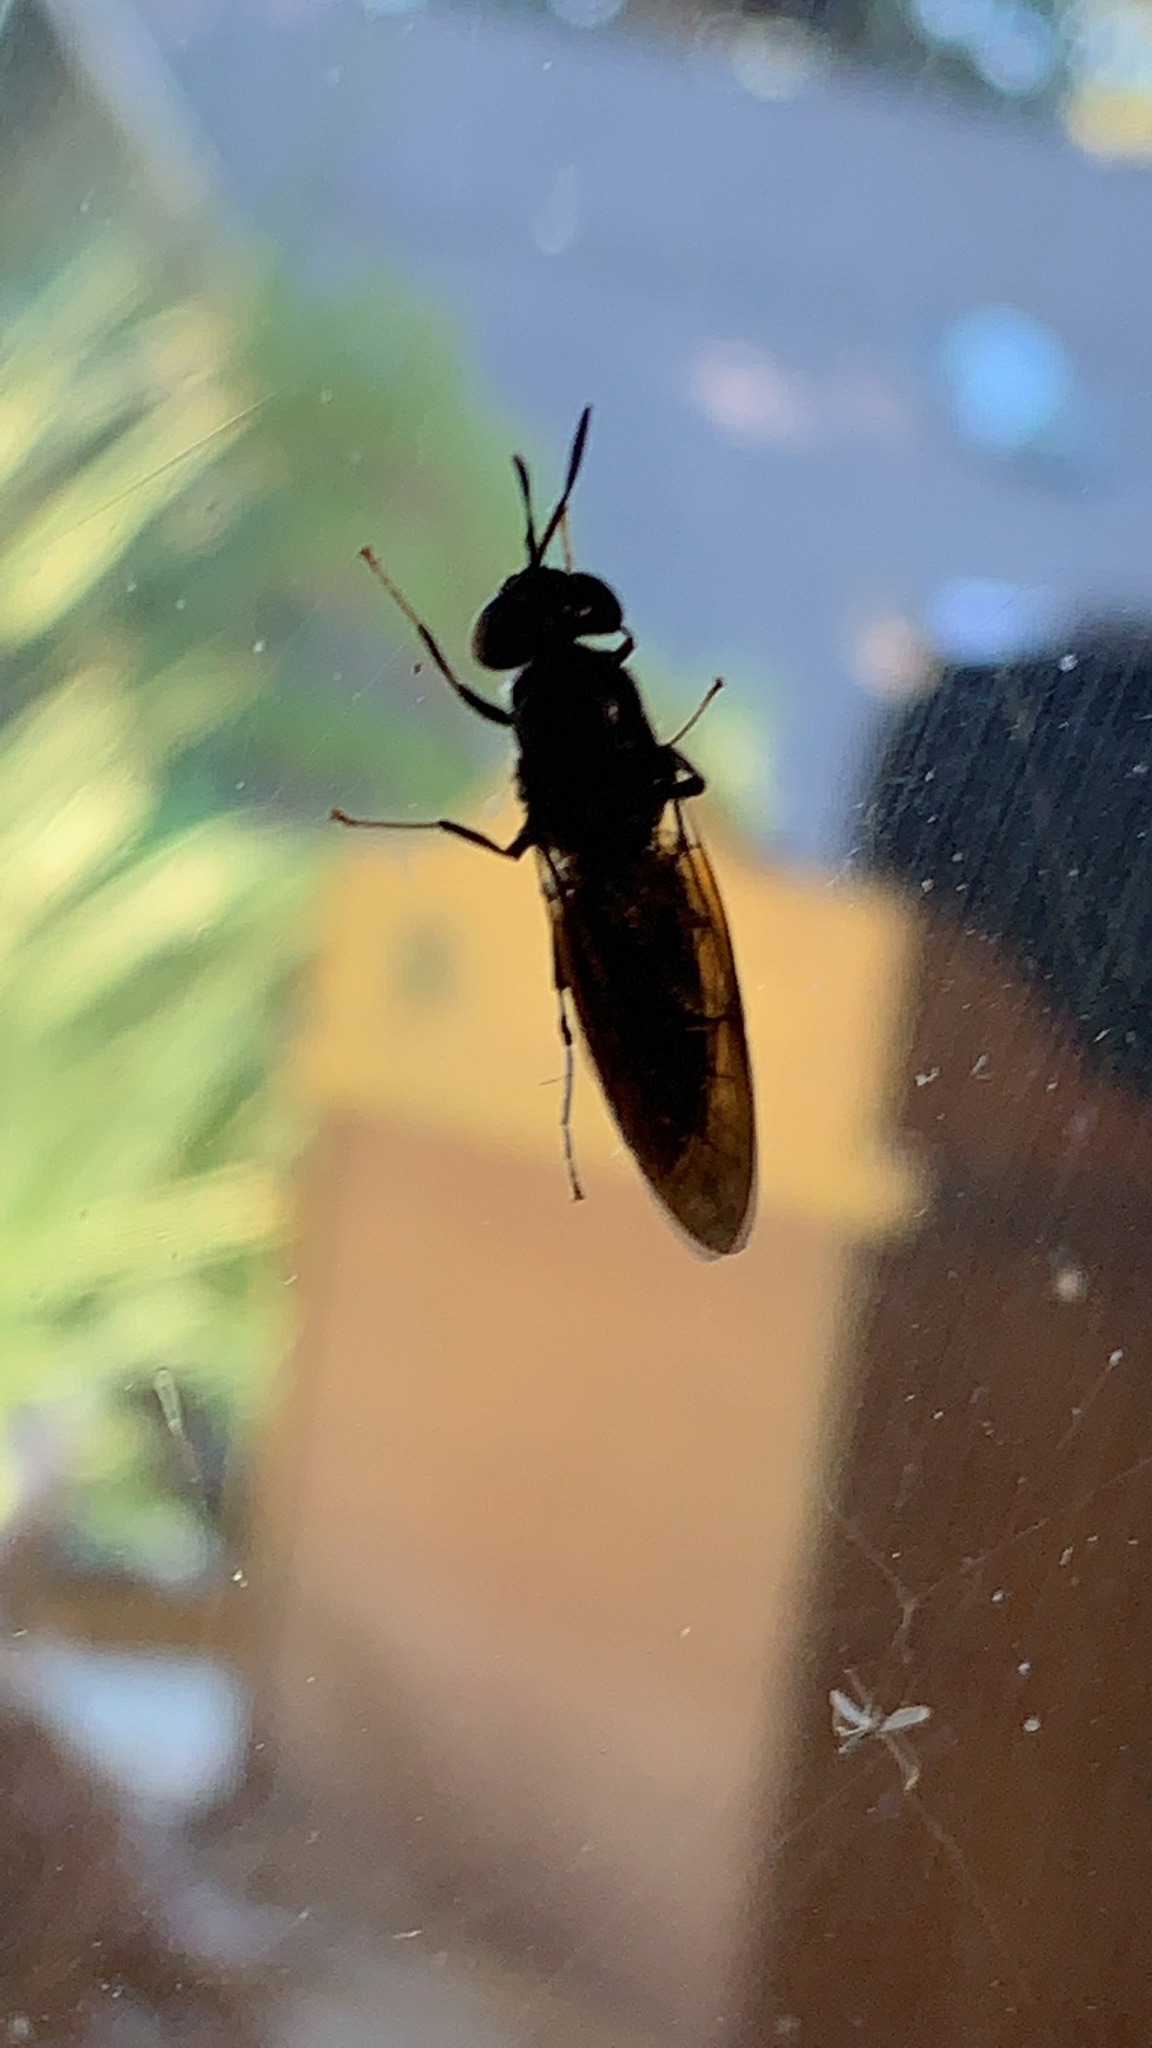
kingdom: Animalia
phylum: Arthropoda
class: Insecta
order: Diptera
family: Stratiomyidae
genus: Hermetia
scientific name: Hermetia illucens
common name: Black soldier fly
